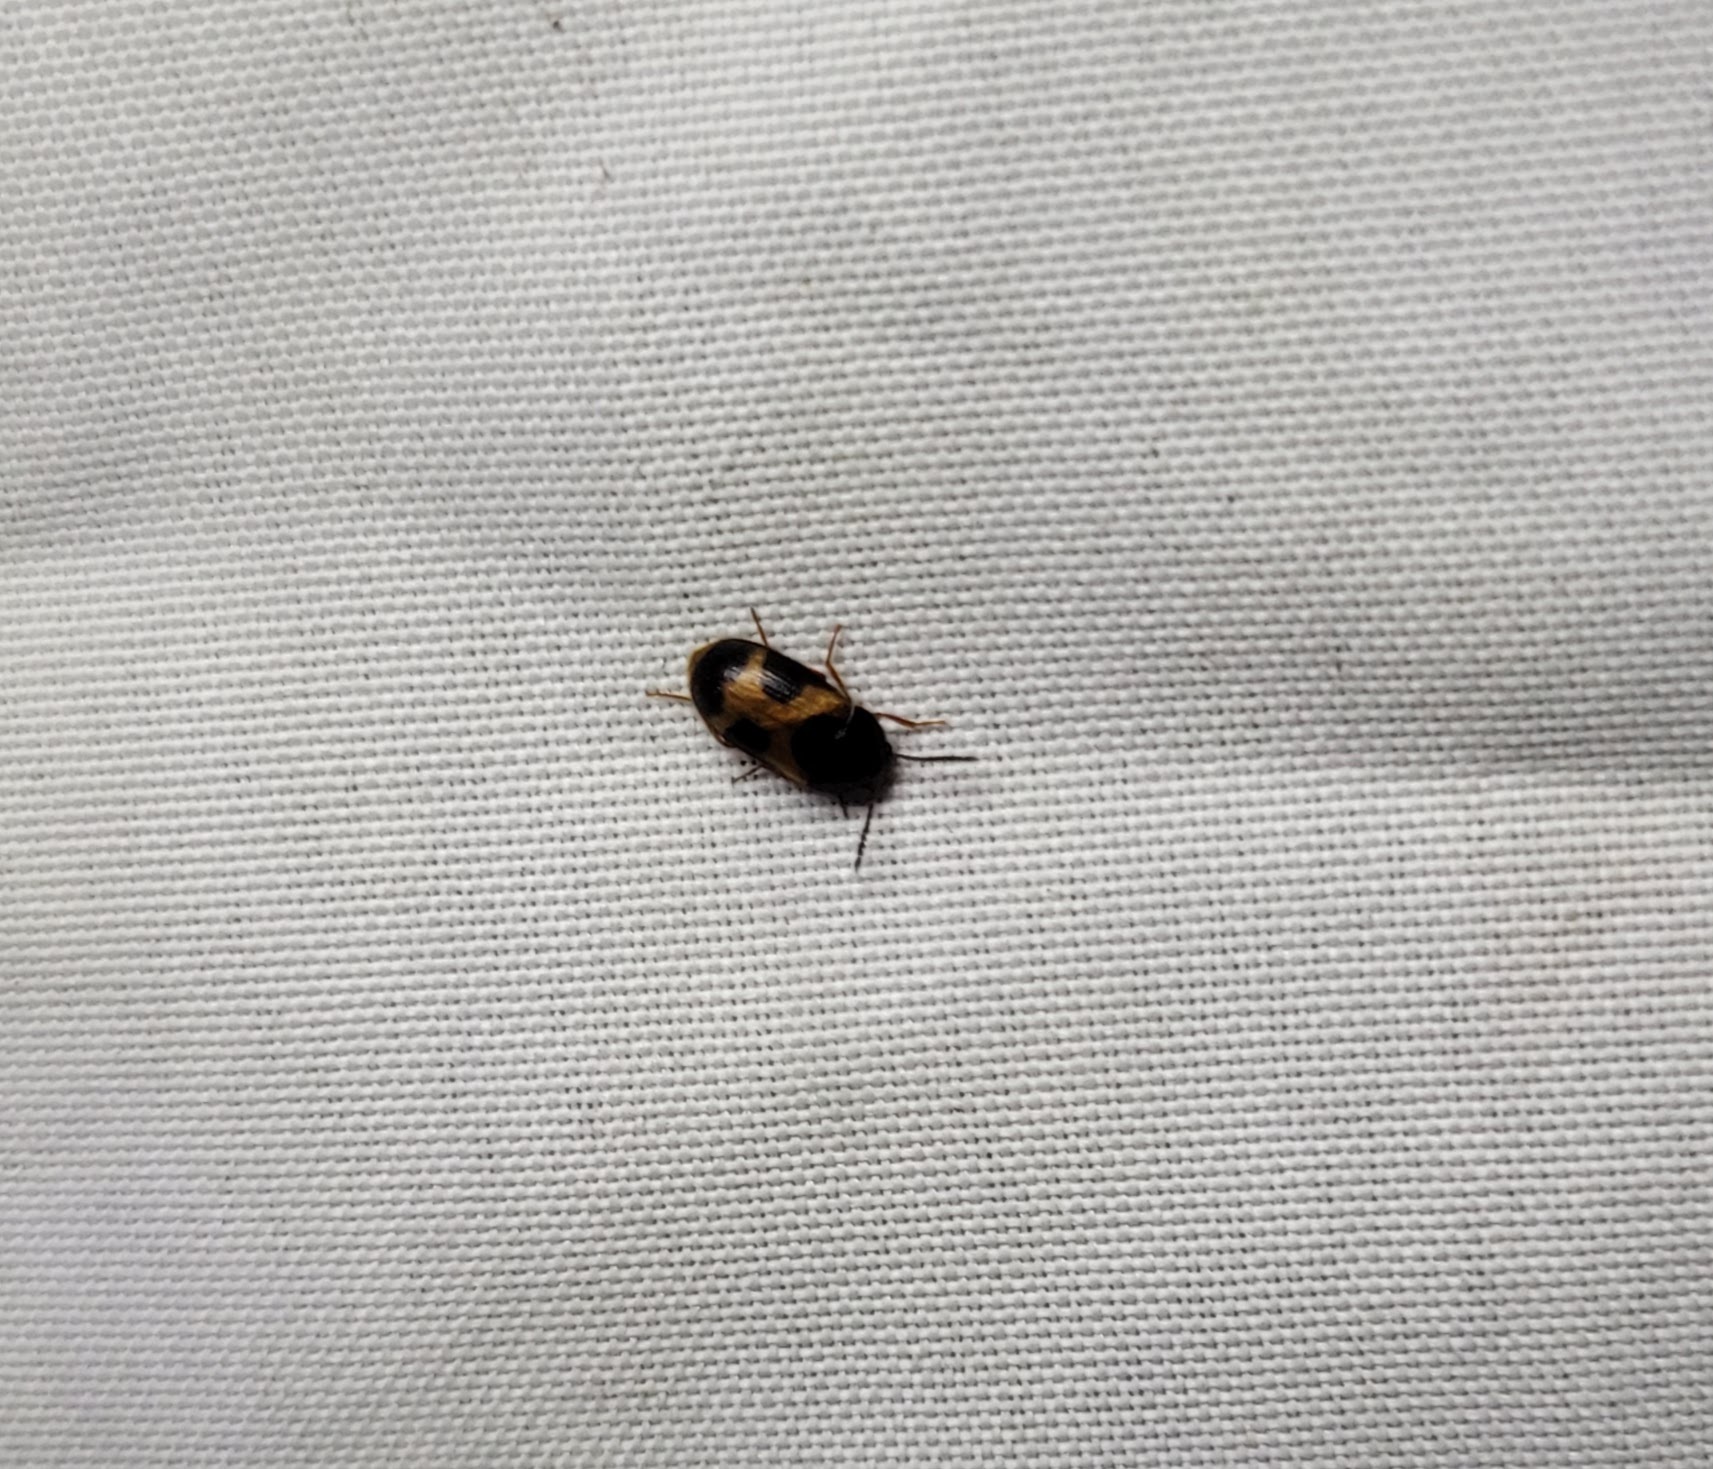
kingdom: Animalia
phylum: Arthropoda
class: Insecta
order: Coleoptera
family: Mycetophagidae
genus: Mycetophagus
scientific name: Mycetophagus punctatus
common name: Hairy fungus beetle
